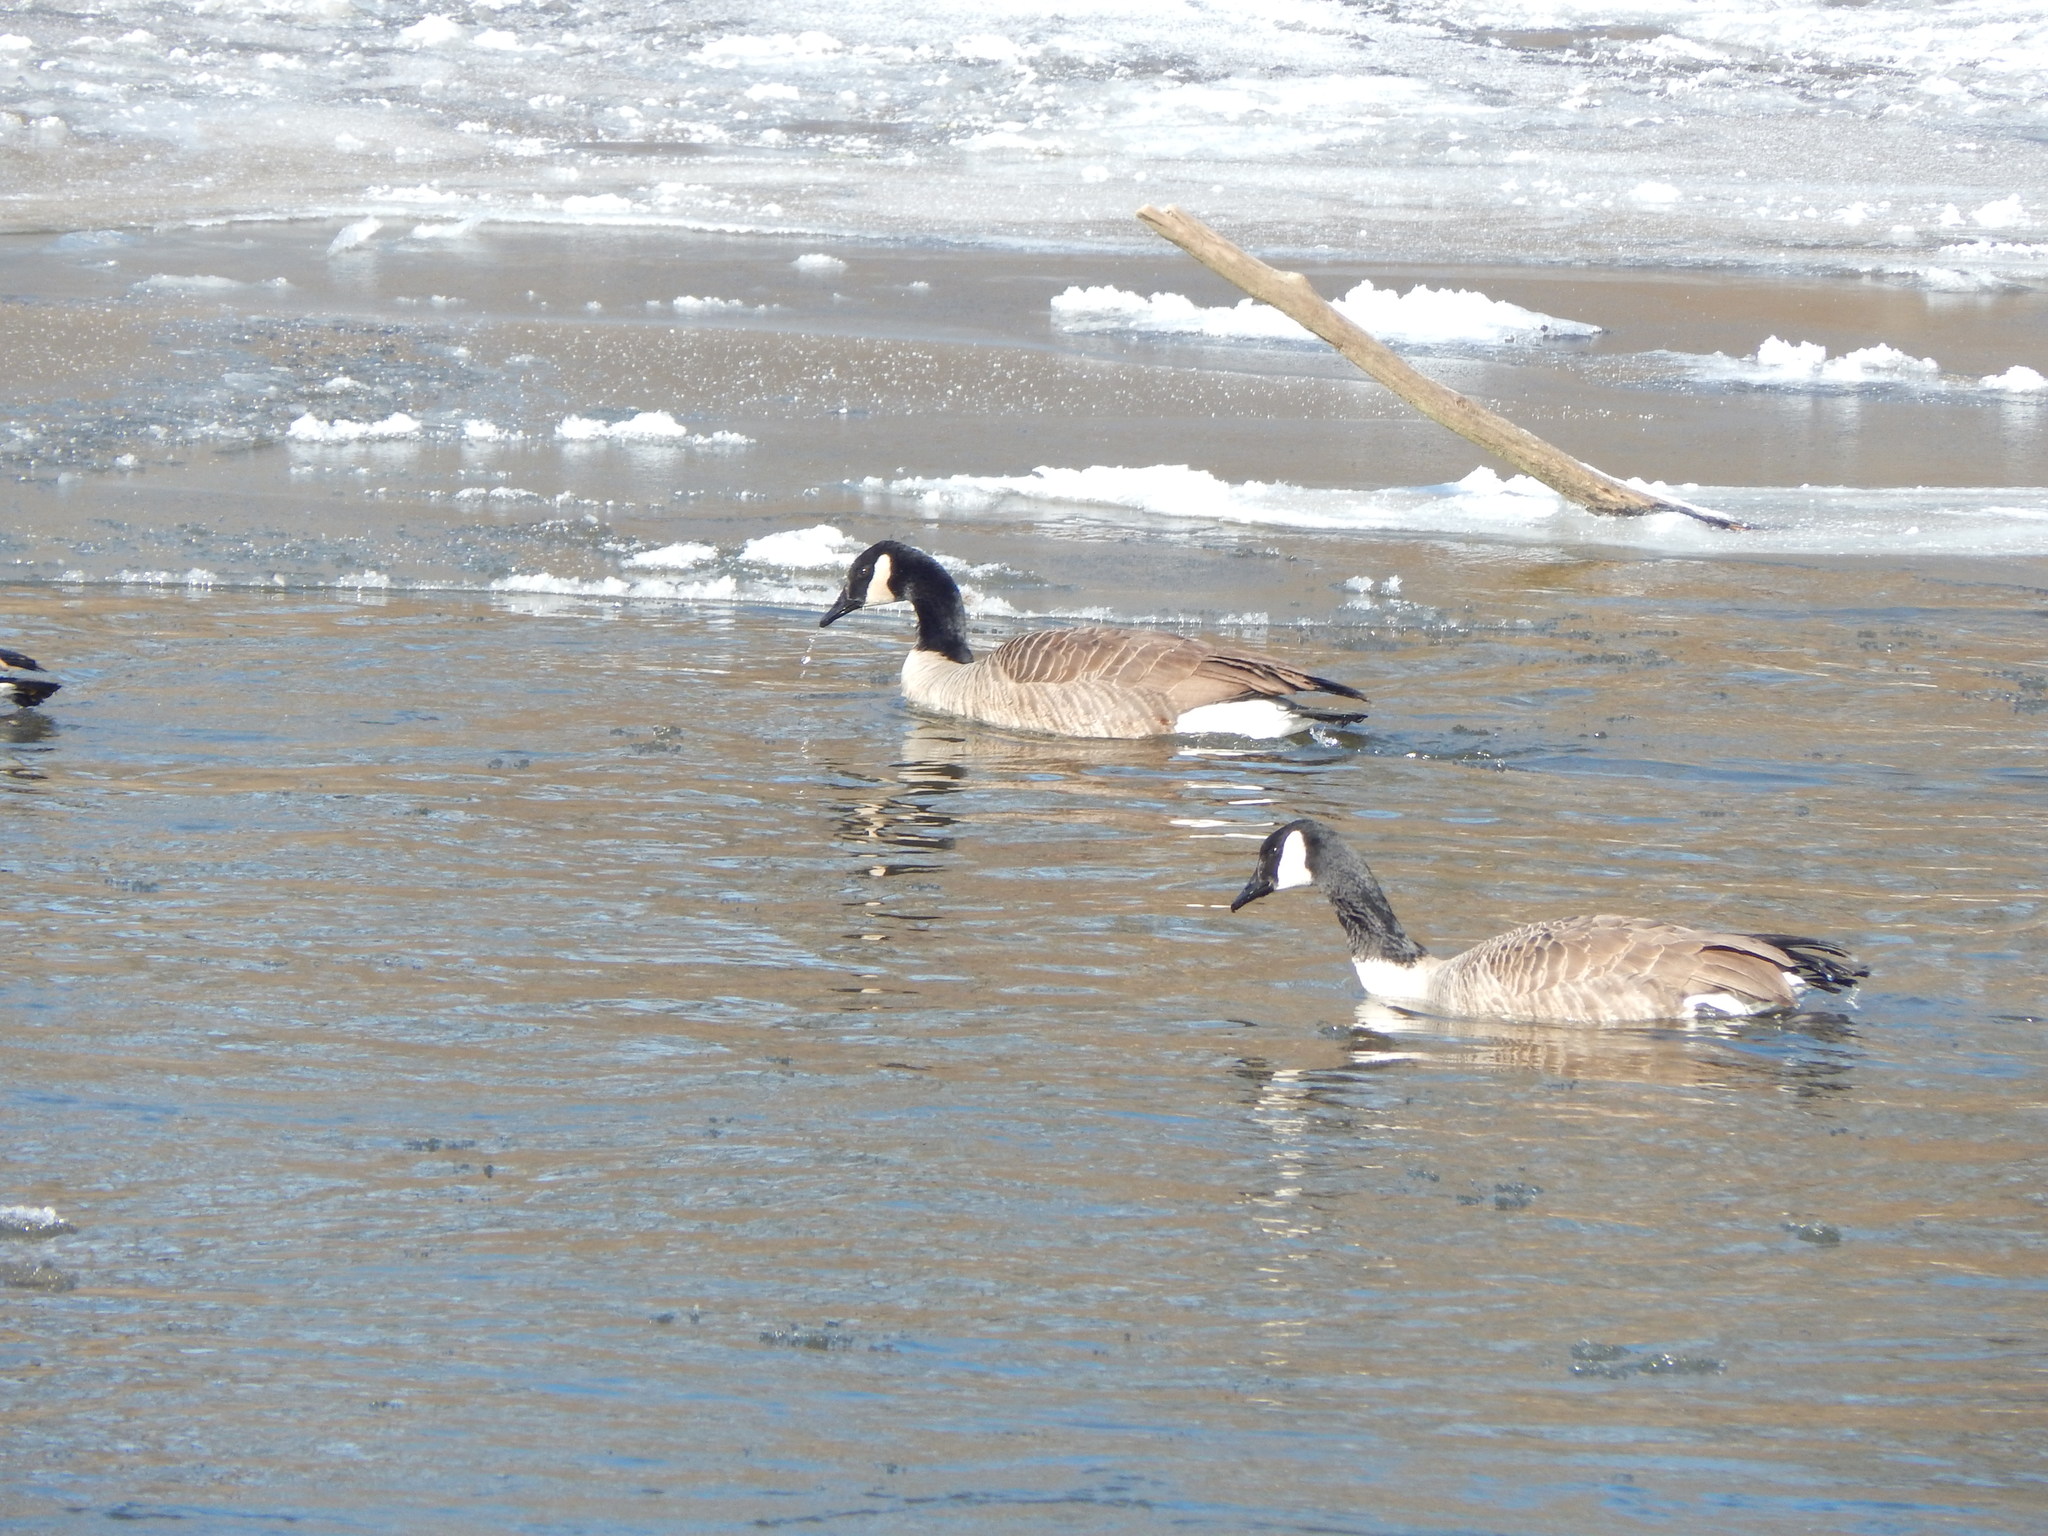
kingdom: Animalia
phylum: Chordata
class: Aves
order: Anseriformes
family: Anatidae
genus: Branta
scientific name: Branta canadensis
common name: Canada goose
